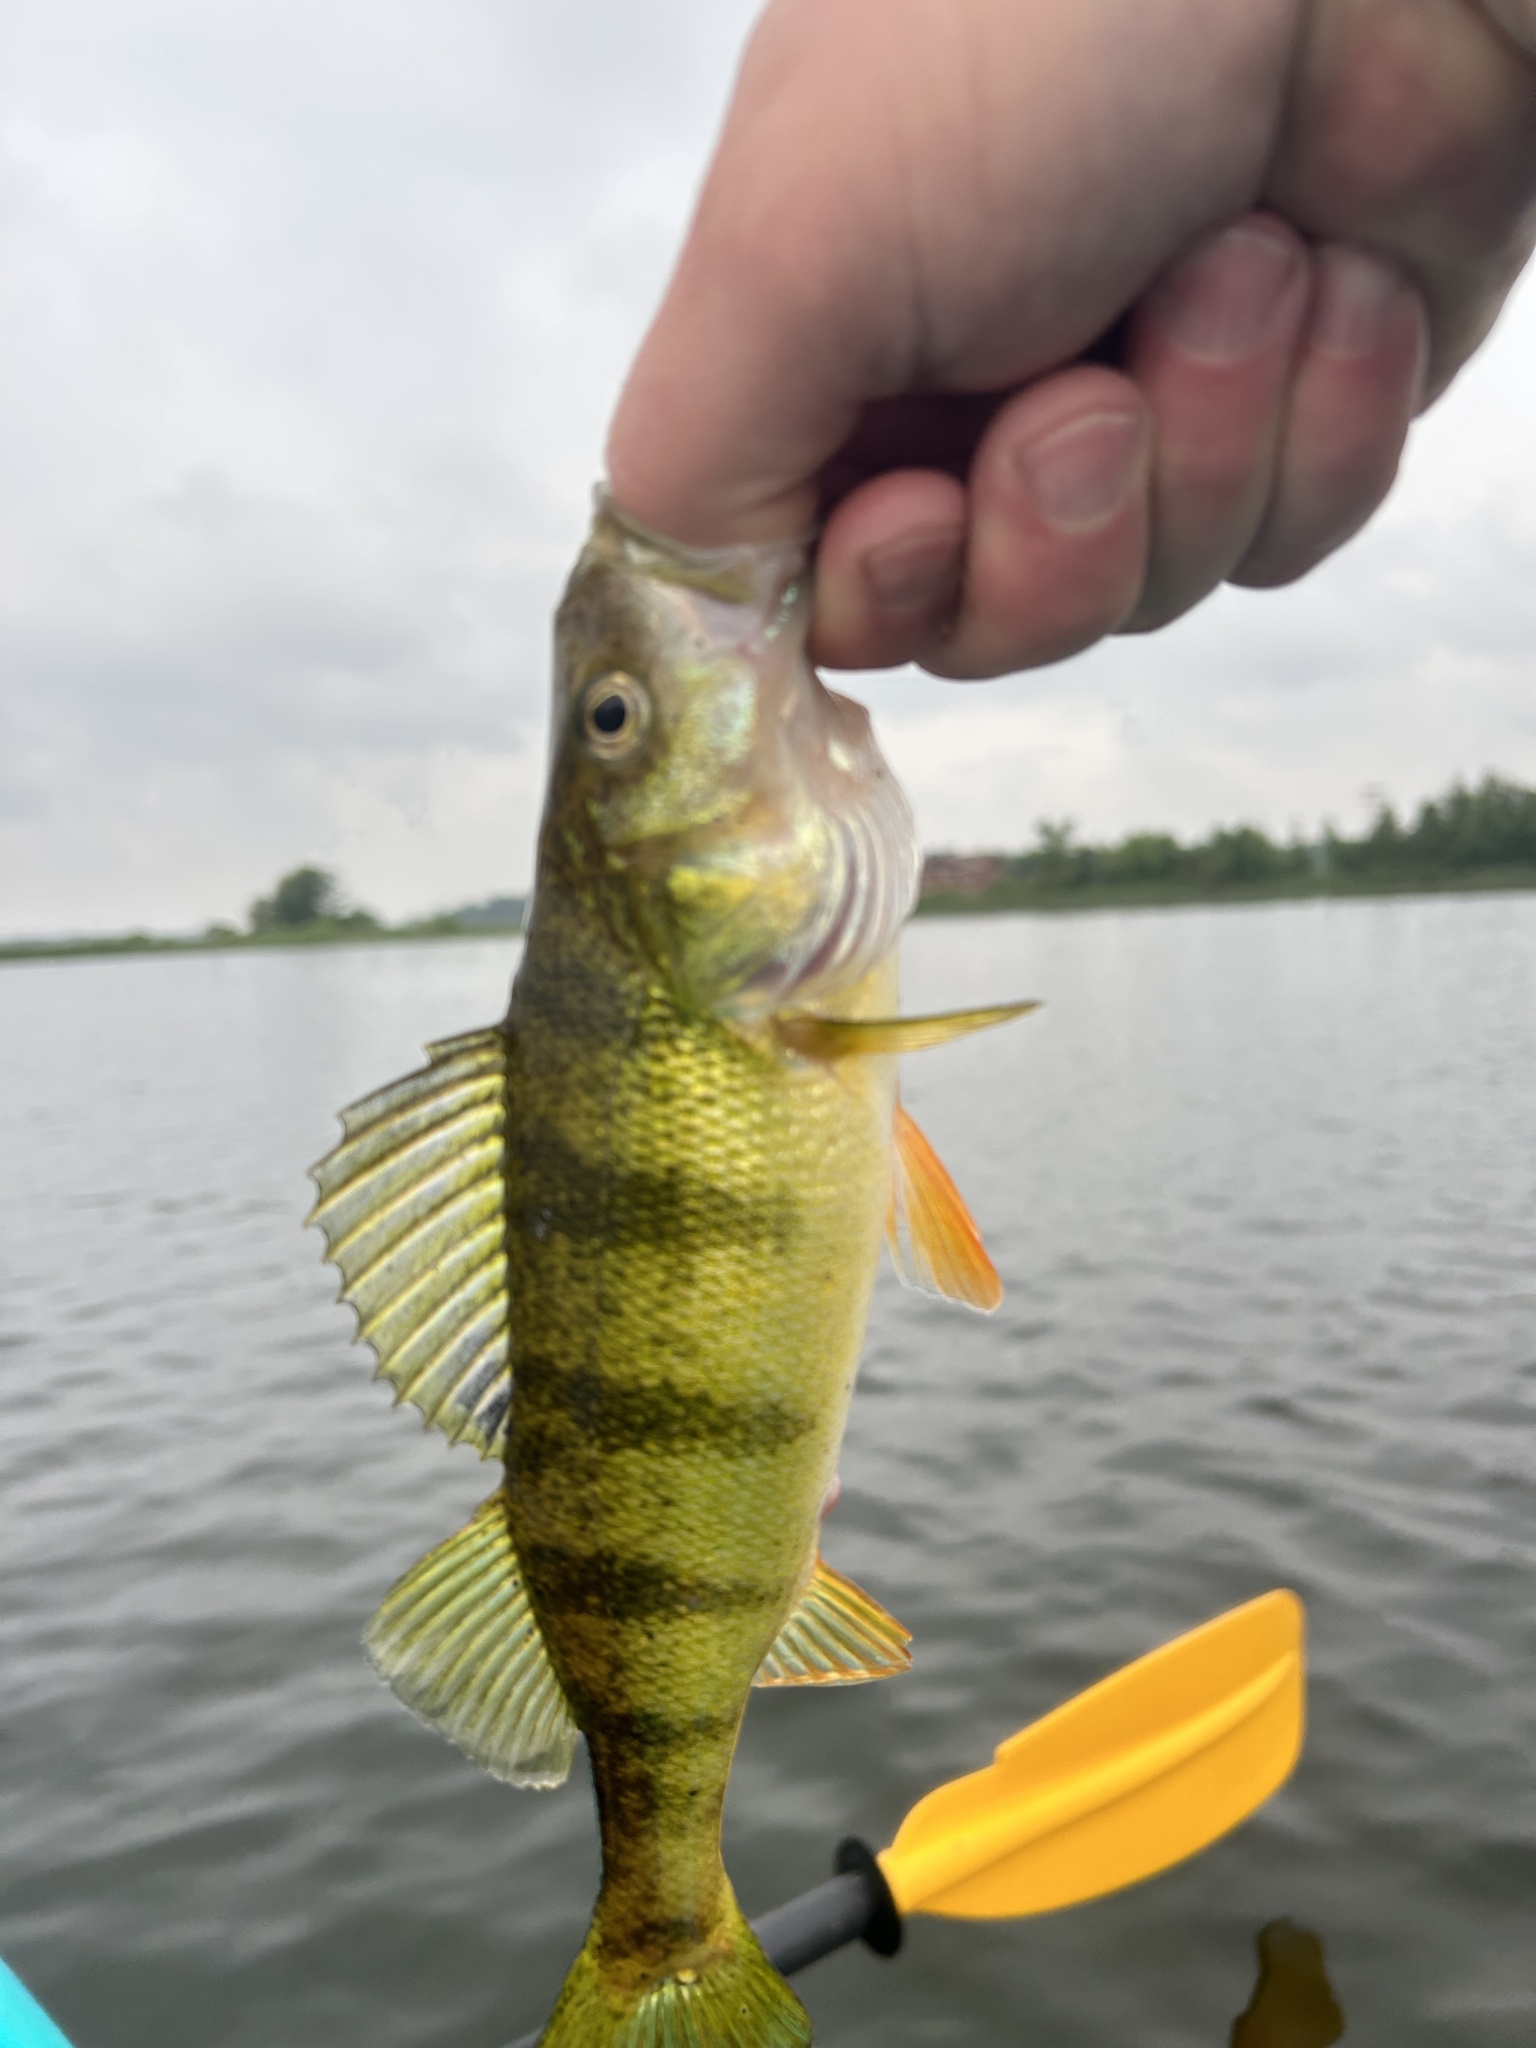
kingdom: Animalia
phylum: Chordata
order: Perciformes
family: Percidae
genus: Perca
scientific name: Perca flavescens
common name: Yellow perch
